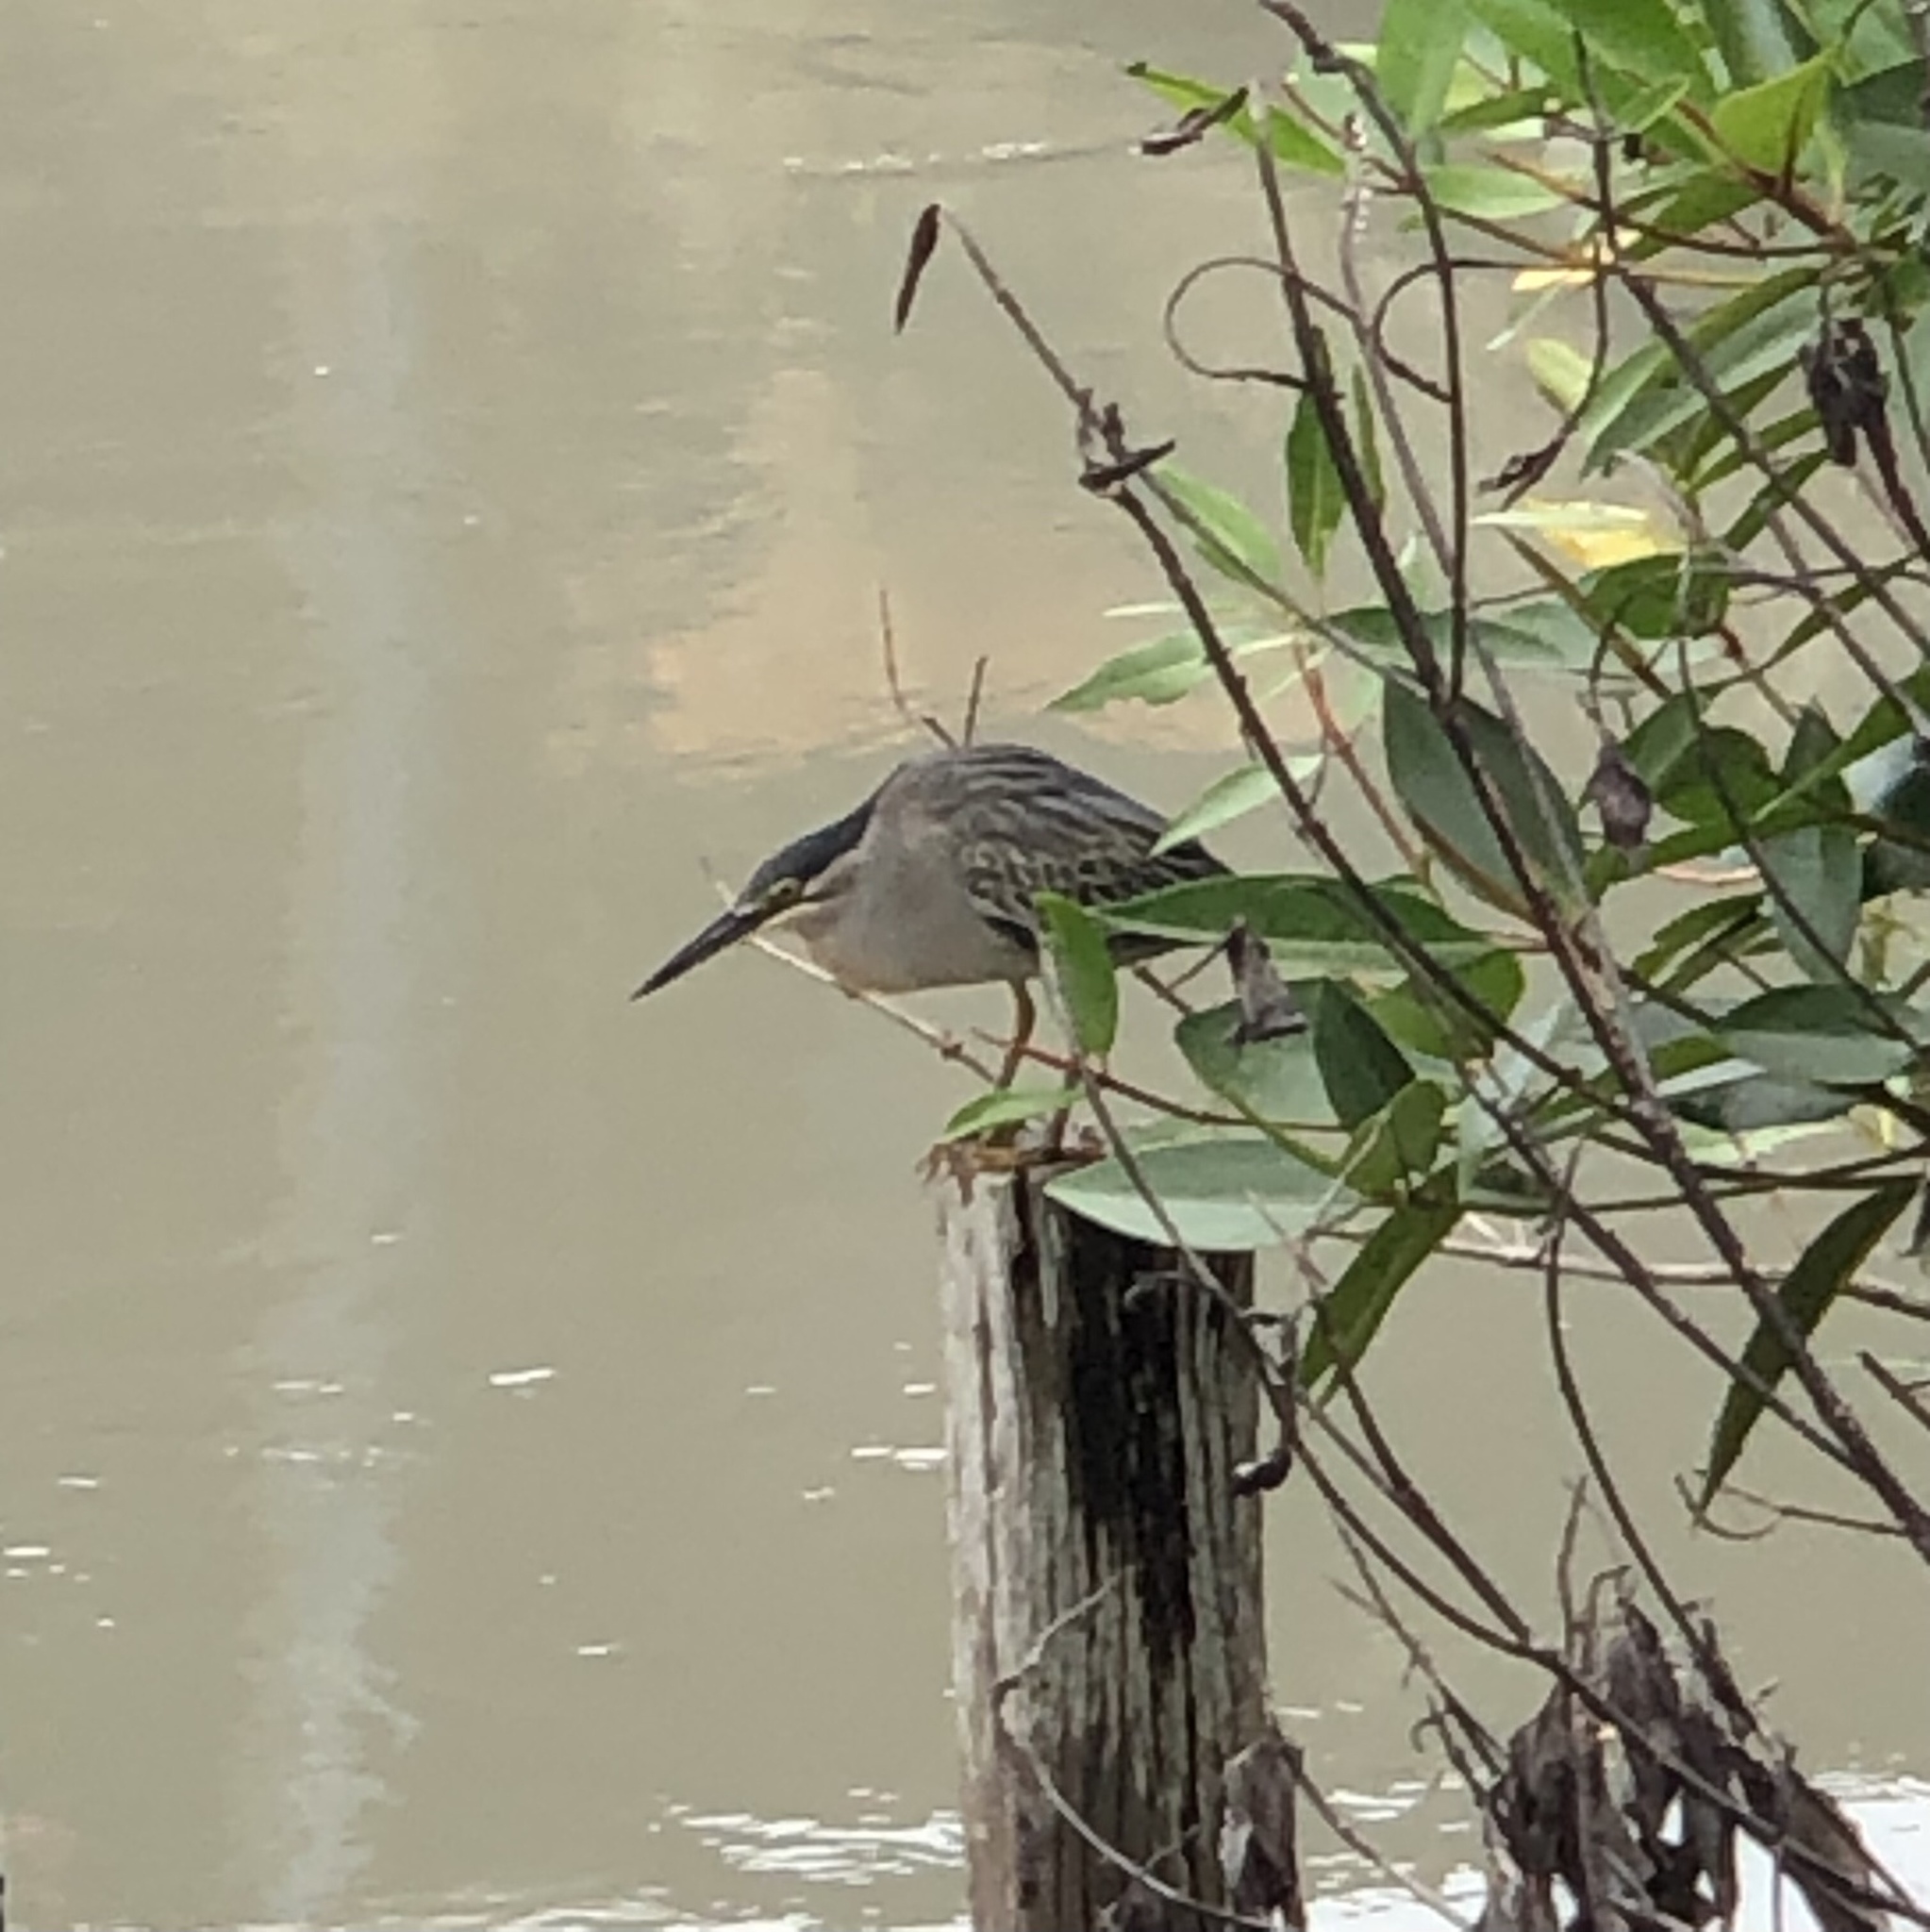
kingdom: Animalia
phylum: Chordata
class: Aves
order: Pelecaniformes
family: Ardeidae
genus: Butorides
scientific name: Butorides striata
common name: Striated heron
